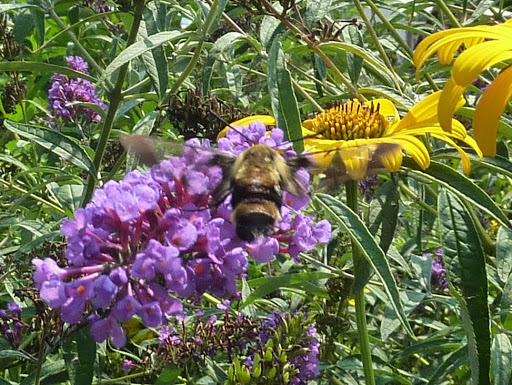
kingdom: Animalia
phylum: Arthropoda
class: Insecta
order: Lepidoptera
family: Sphingidae
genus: Hemaris
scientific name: Hemaris diffinis
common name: Bumblebee moth
